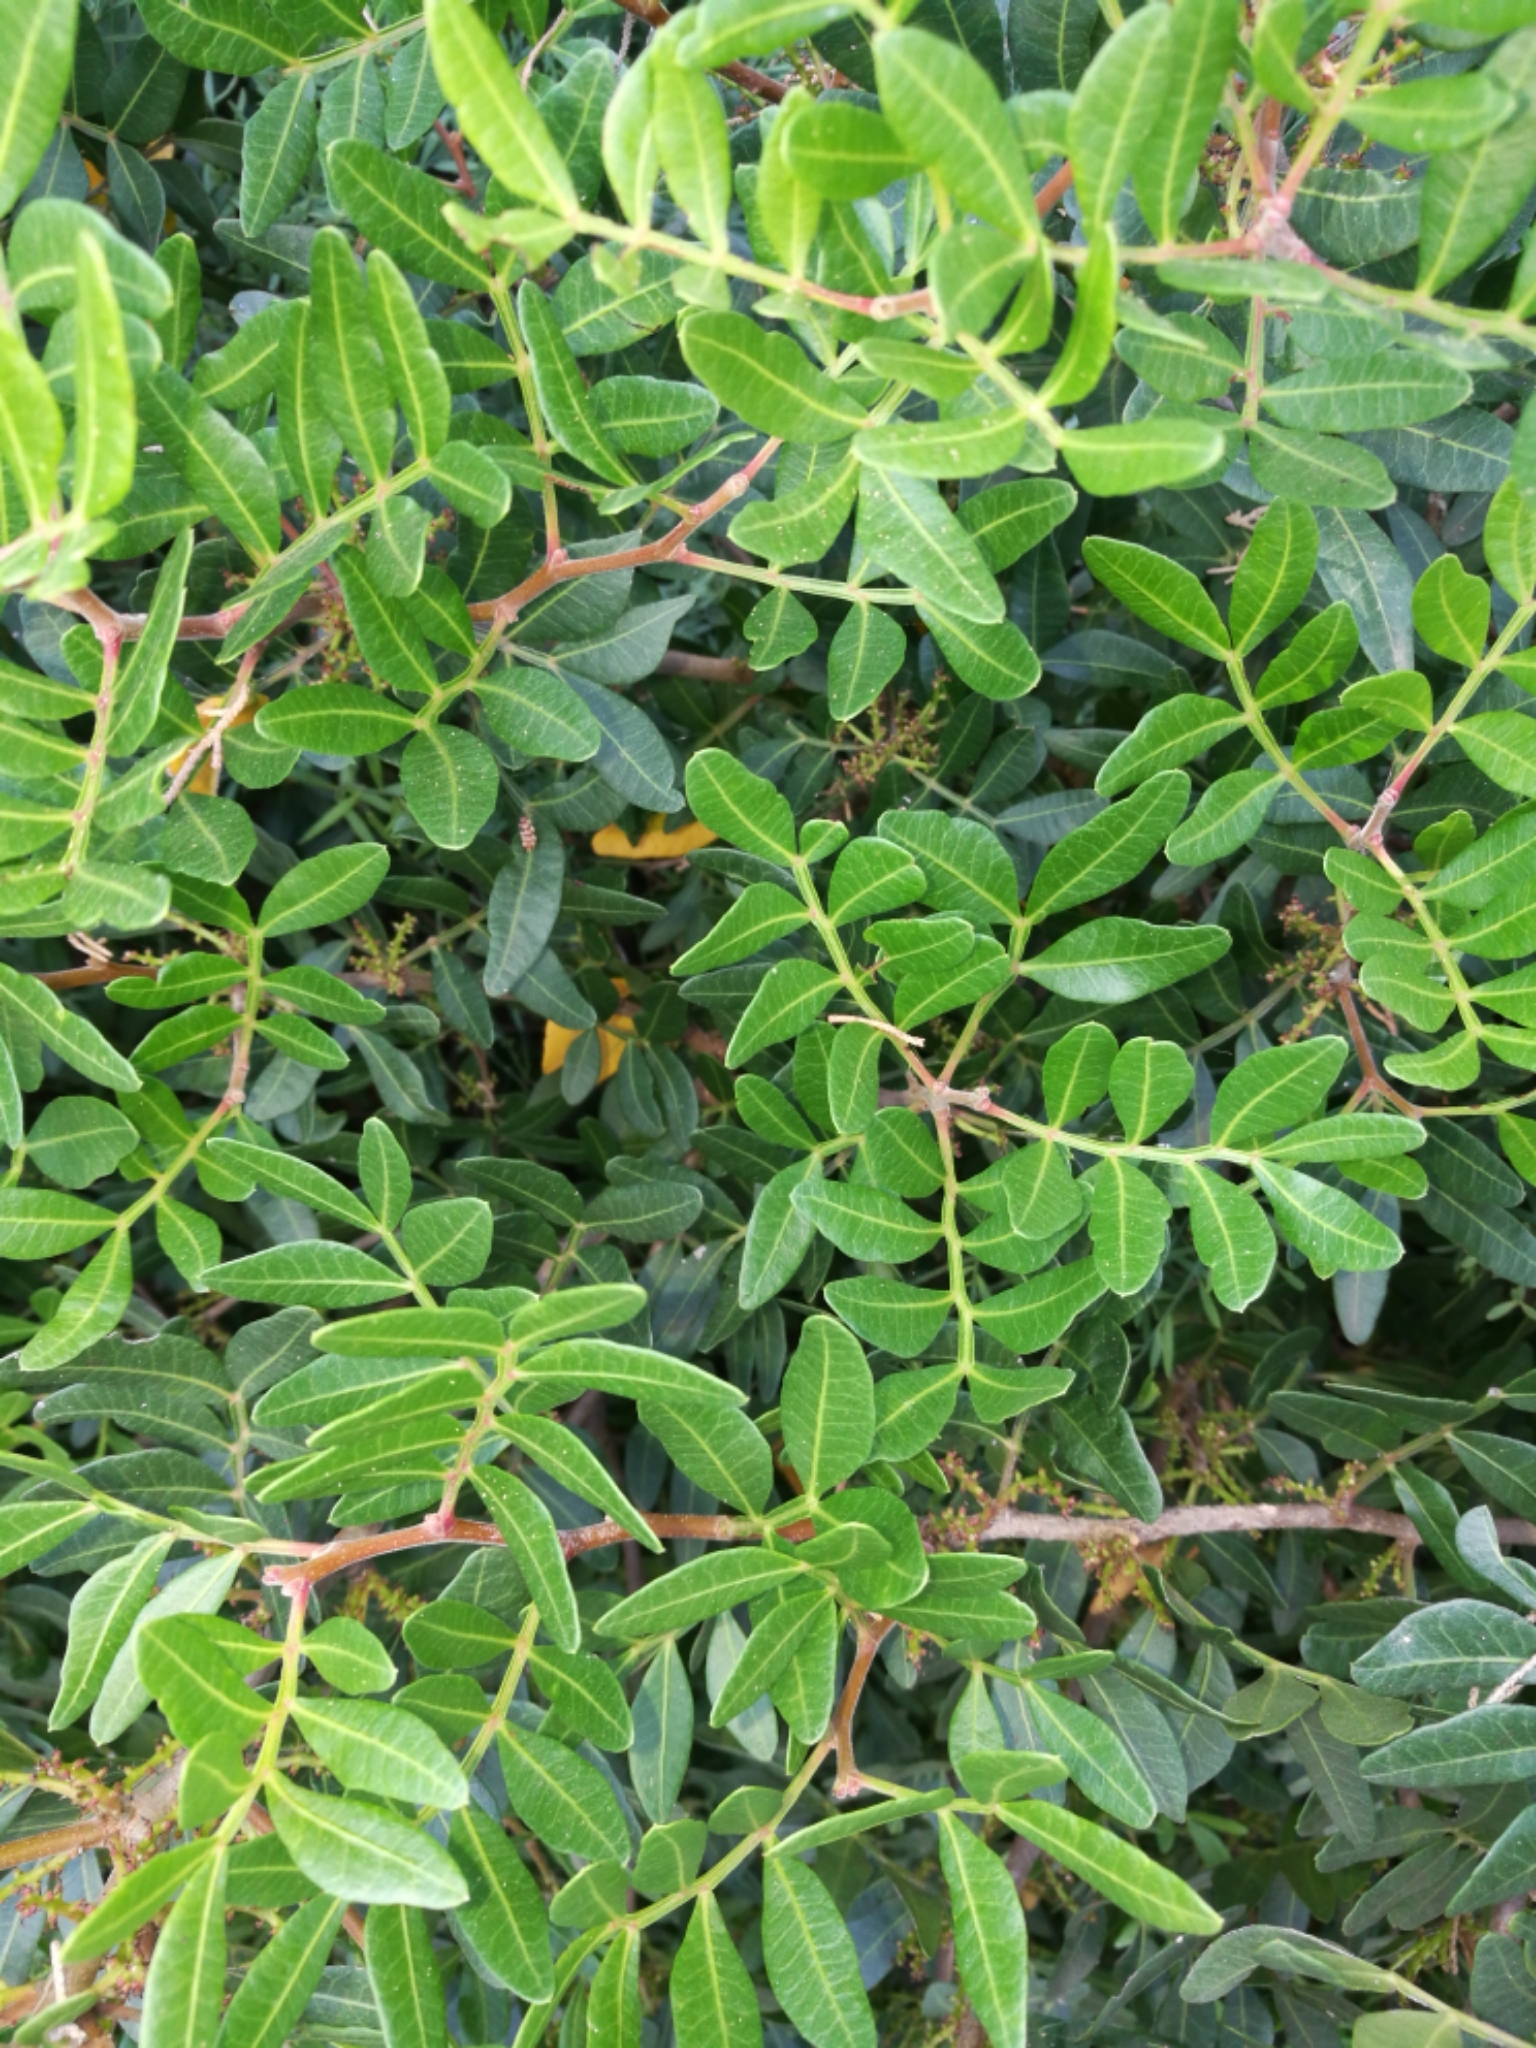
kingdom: Plantae
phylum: Tracheophyta
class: Magnoliopsida
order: Sapindales
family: Anacardiaceae
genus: Pistacia
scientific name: Pistacia lentiscus
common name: Lentisk
